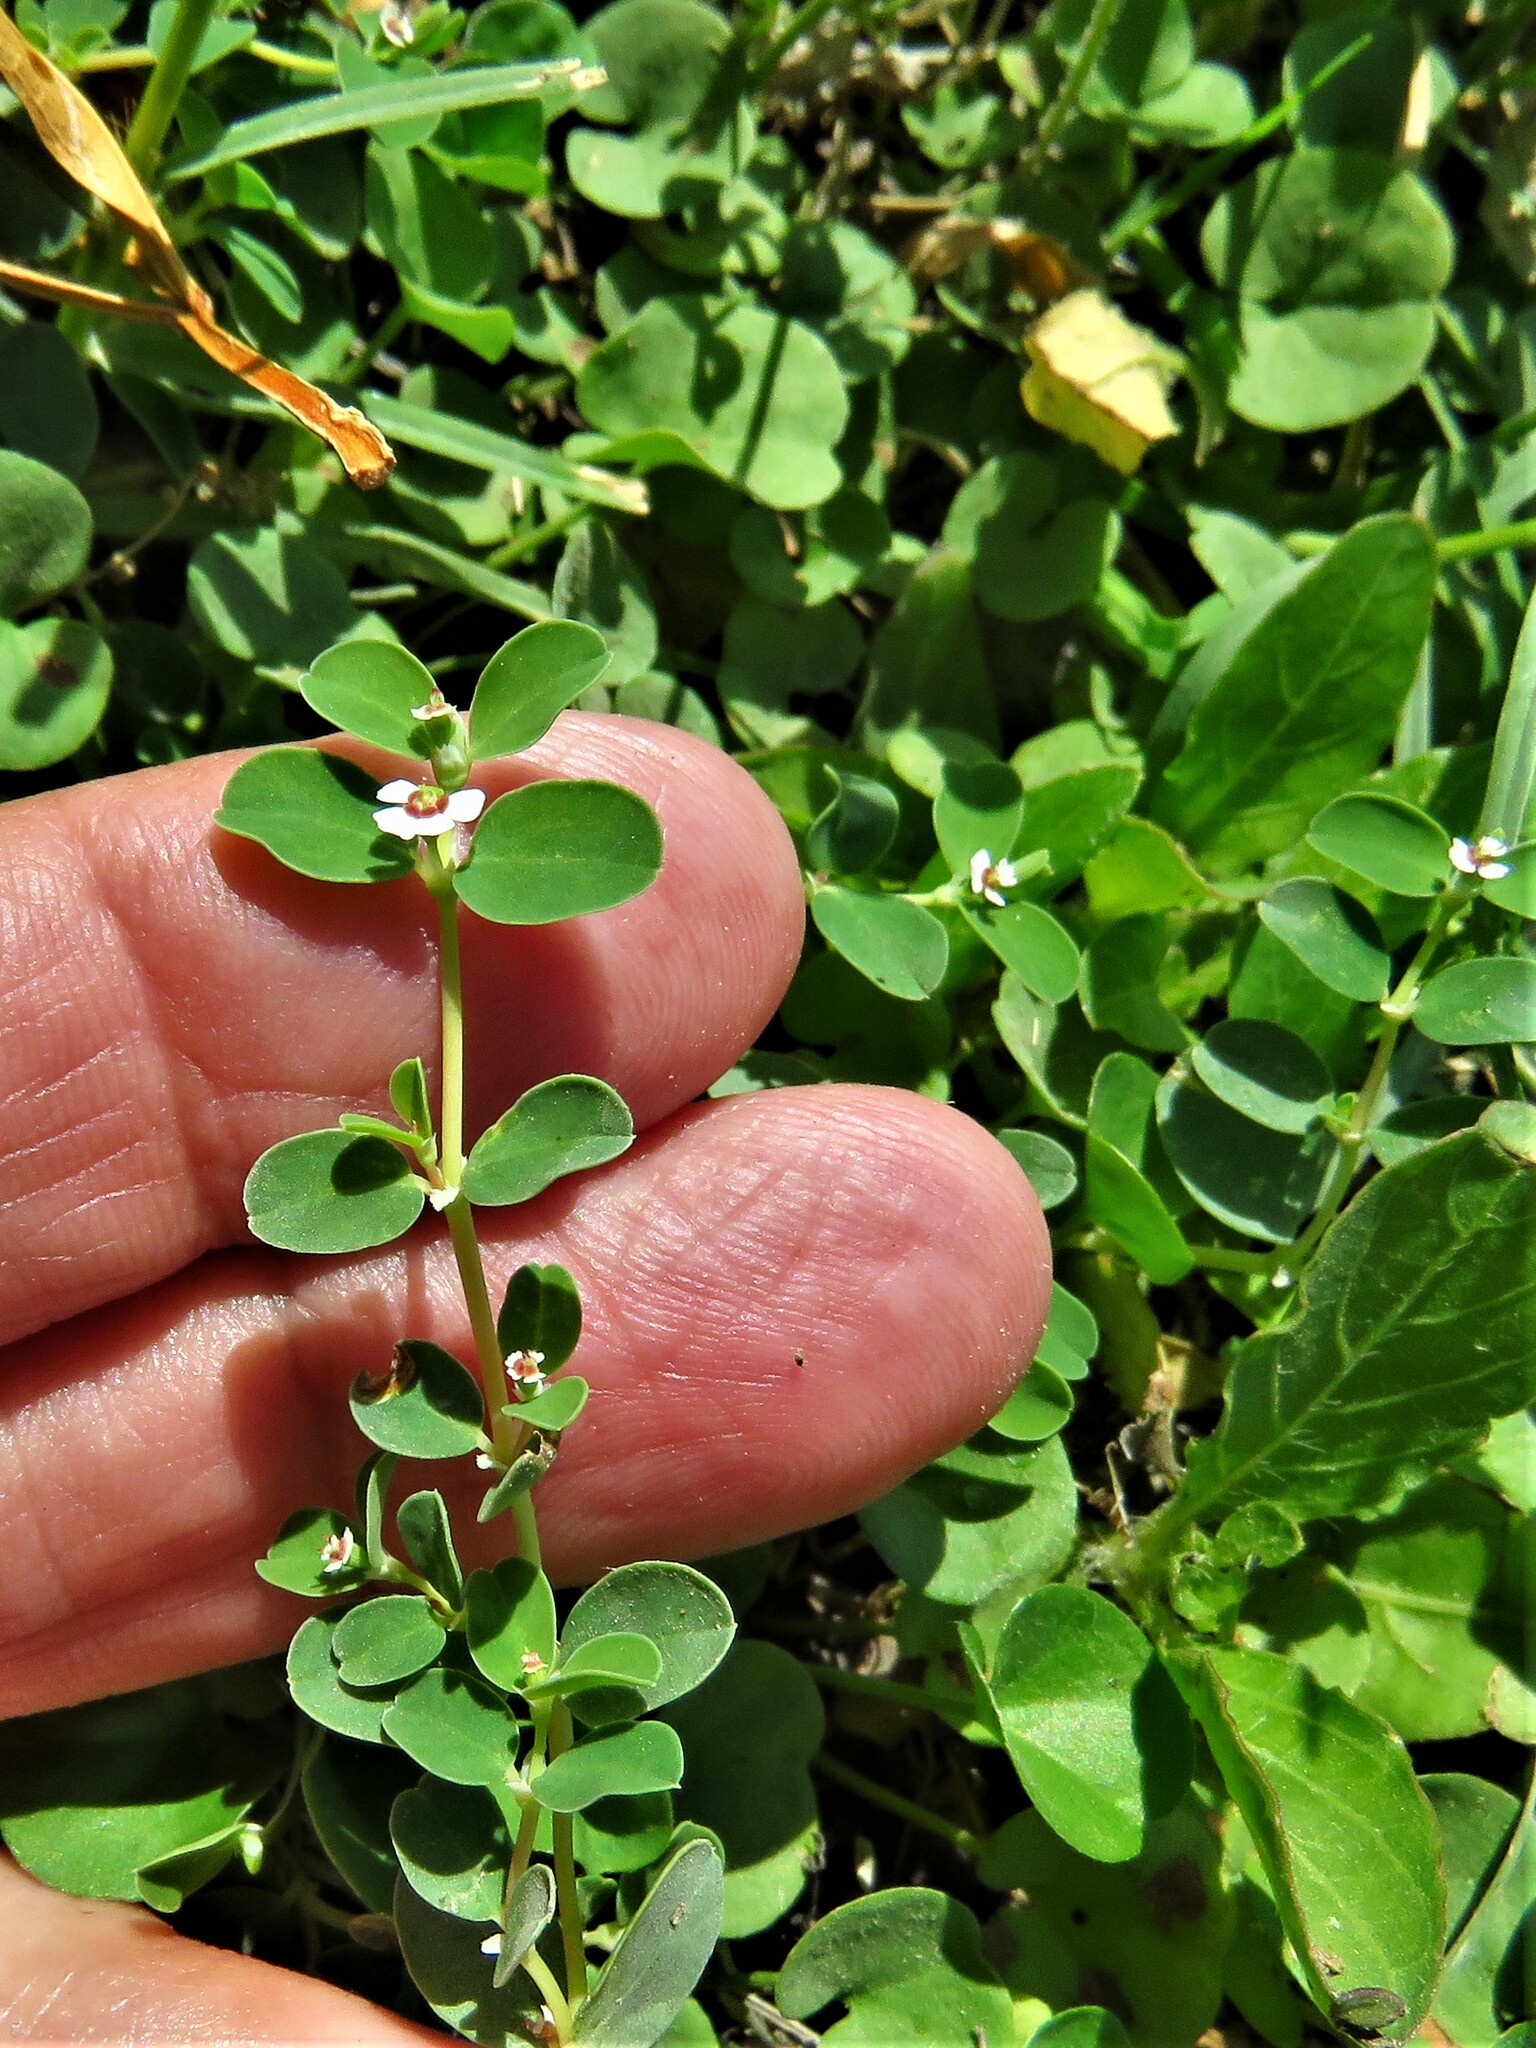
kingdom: Plantae
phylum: Tracheophyta
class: Magnoliopsida
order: Malpighiales
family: Euphorbiaceae
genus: Euphorbia
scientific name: Euphorbia albomarginata
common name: Whitemargin sandmat
